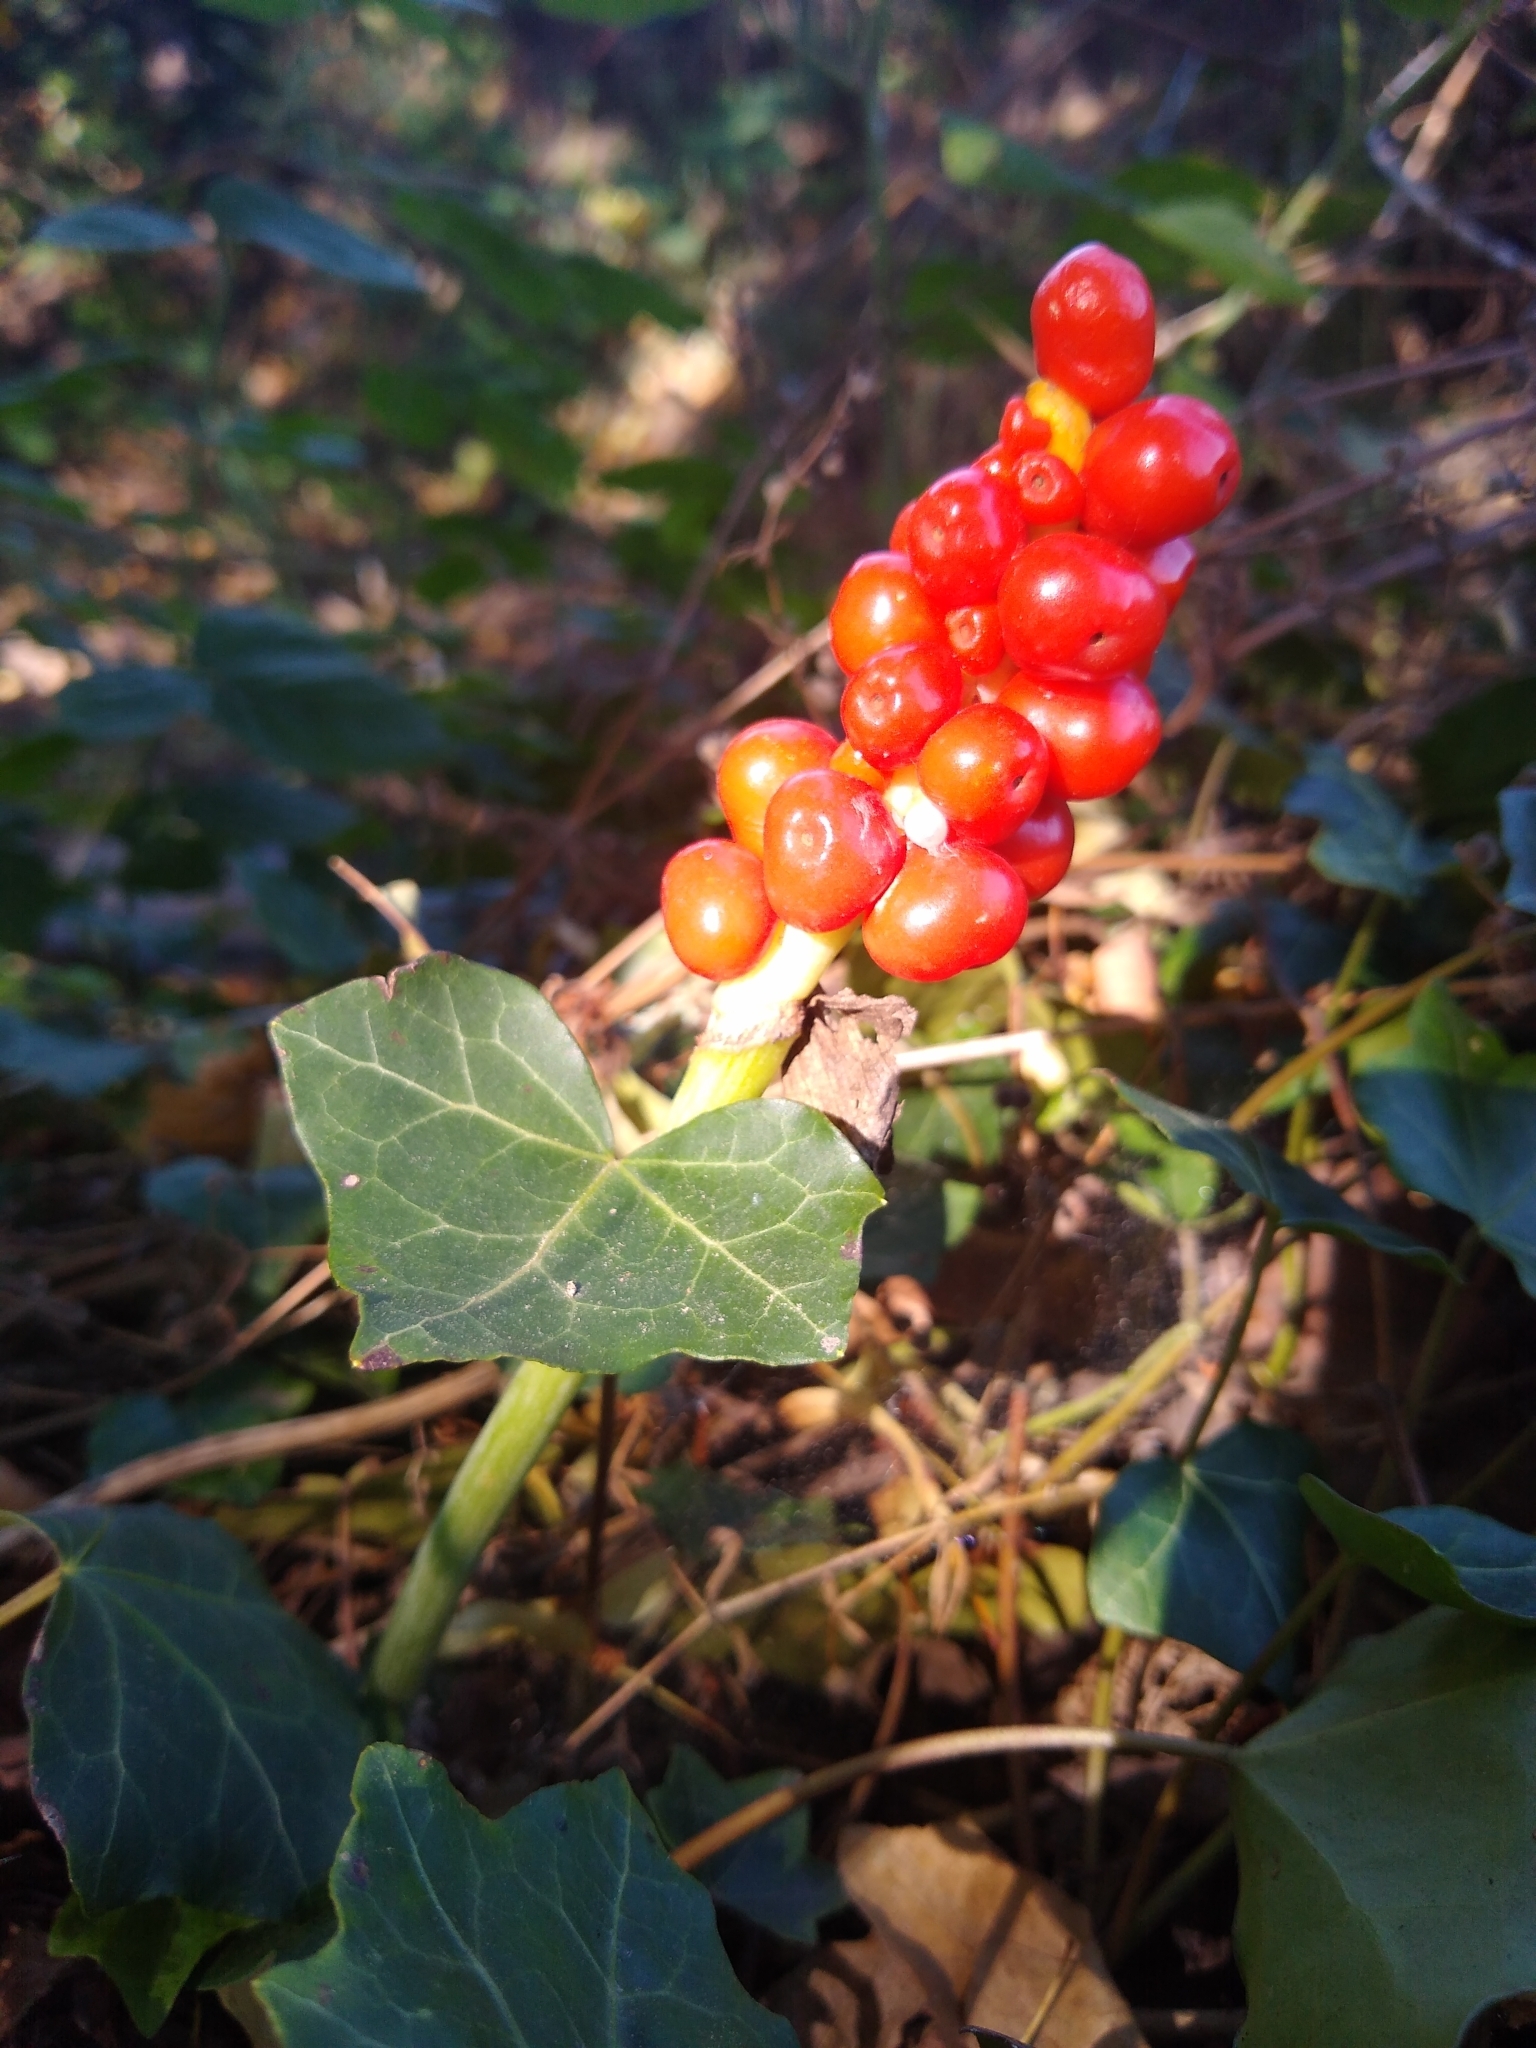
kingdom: Plantae
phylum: Tracheophyta
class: Liliopsida
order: Alismatales
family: Araceae
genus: Arum
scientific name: Arum maculatum
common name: Lords-and-ladies
